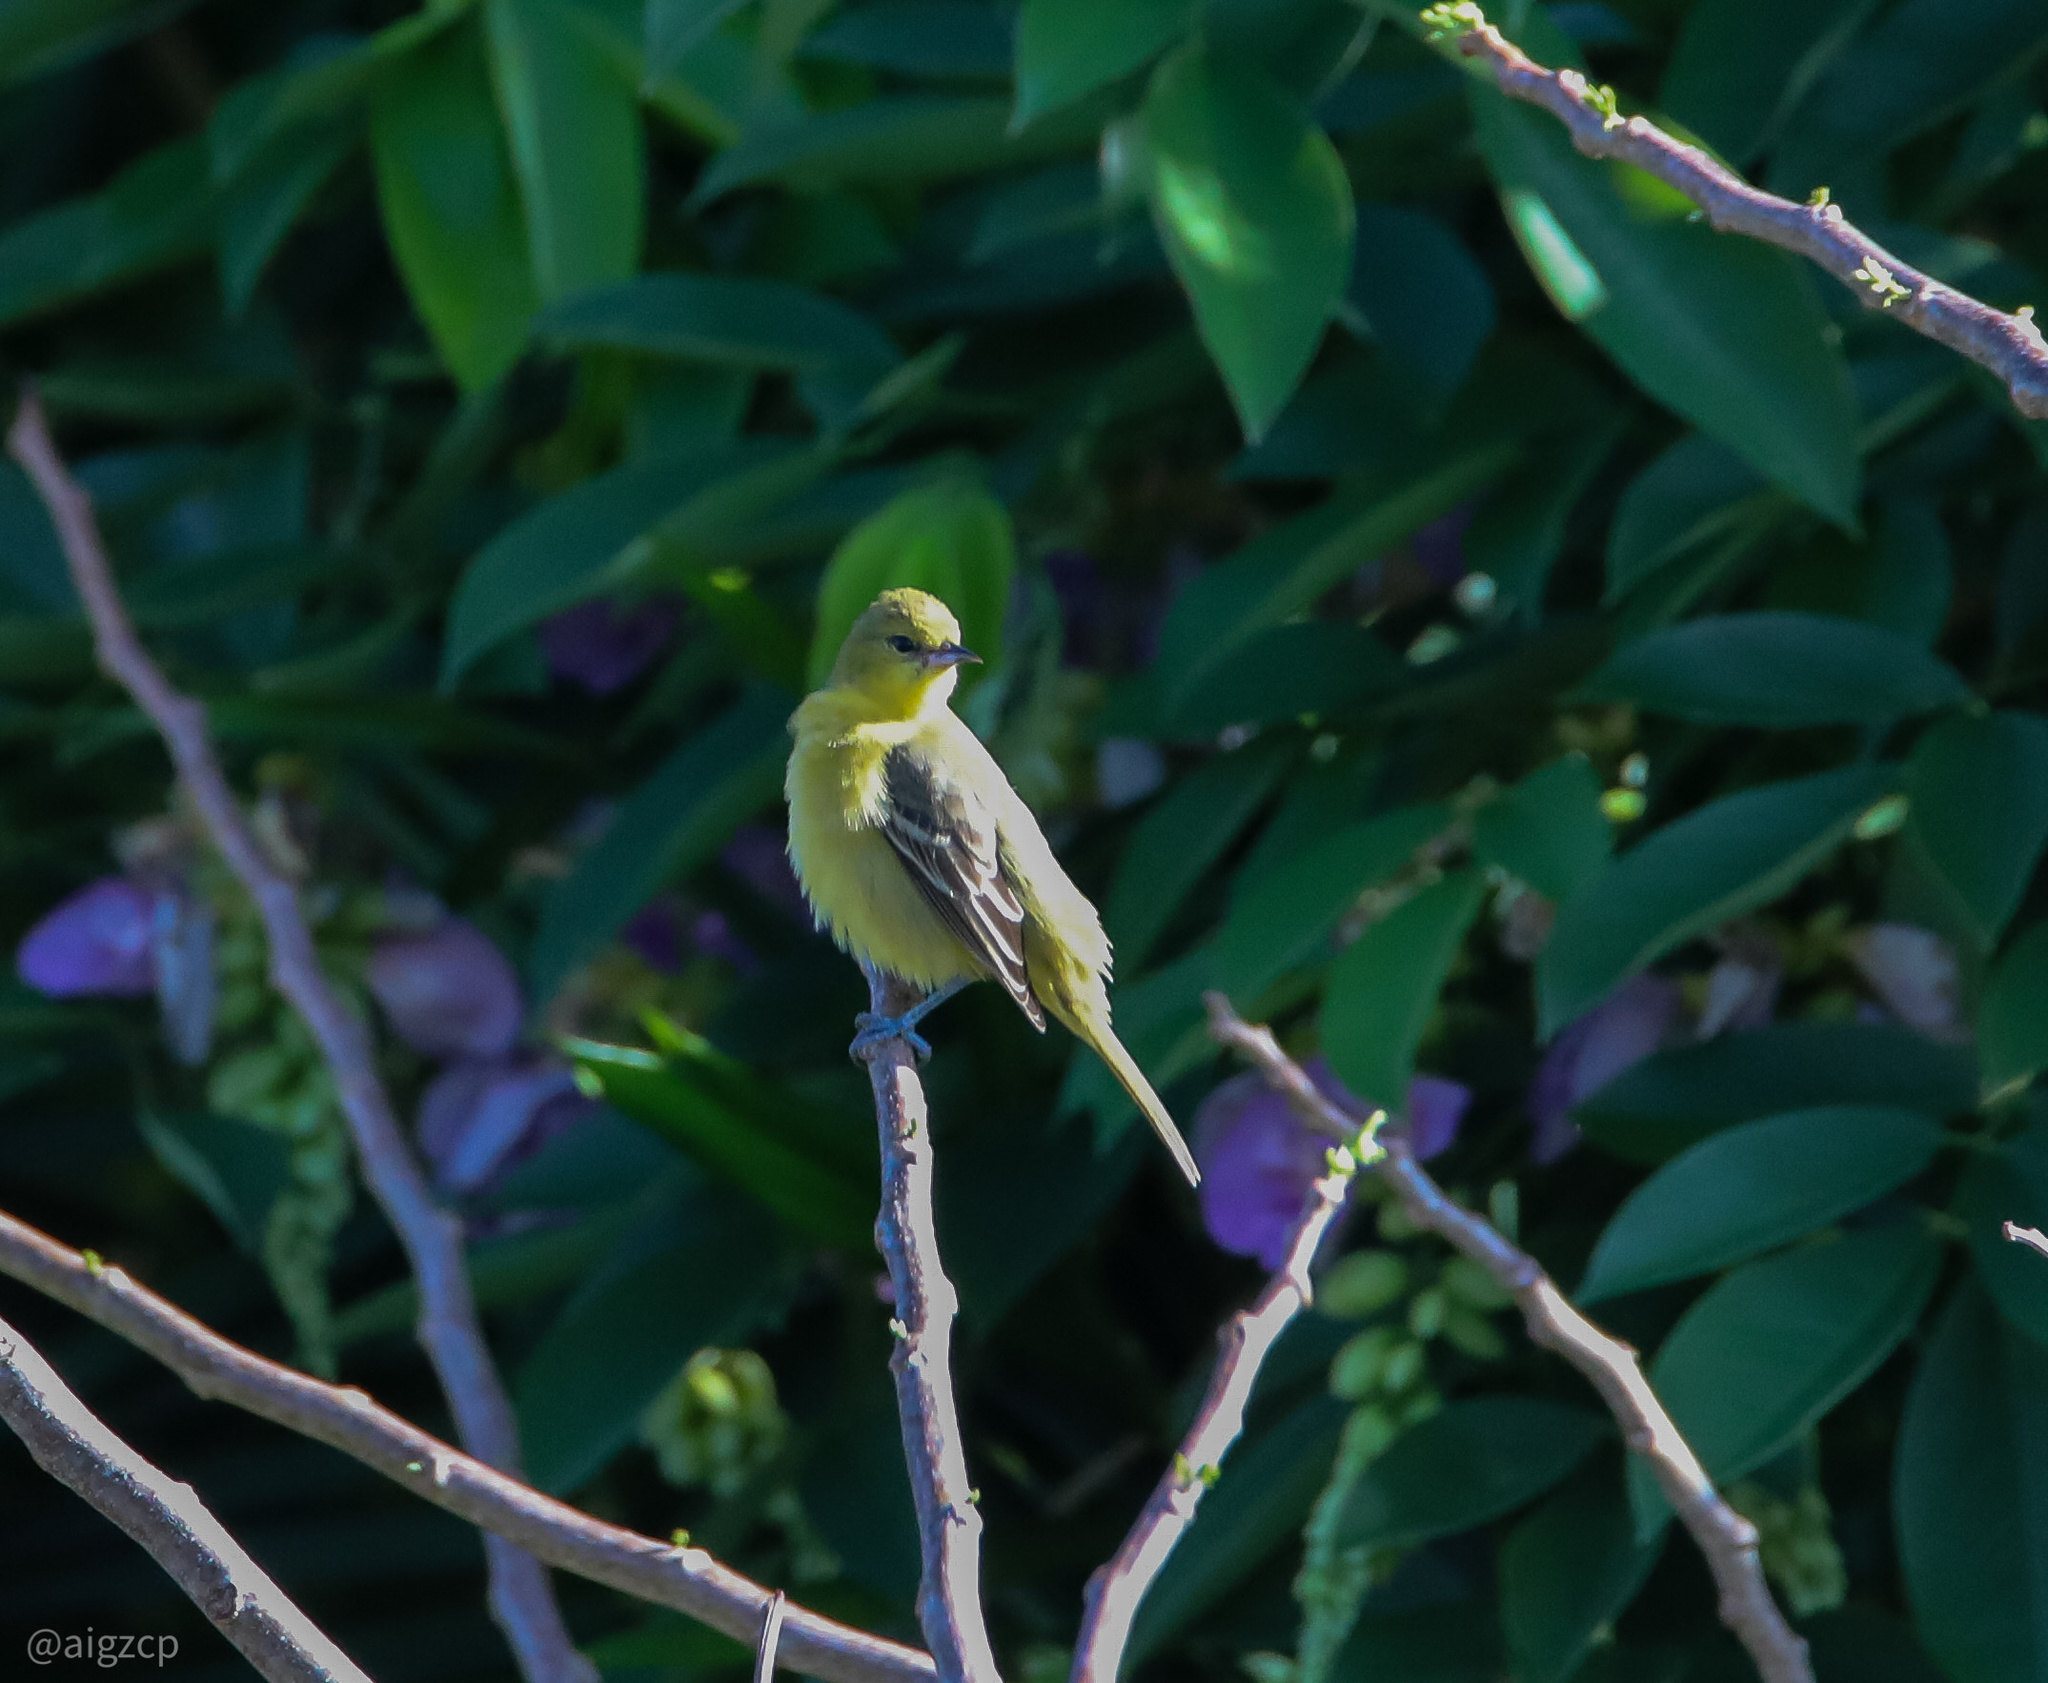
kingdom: Animalia
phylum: Chordata
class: Aves
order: Passeriformes
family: Icteridae
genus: Icterus
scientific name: Icterus spurius
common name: Orchard oriole
